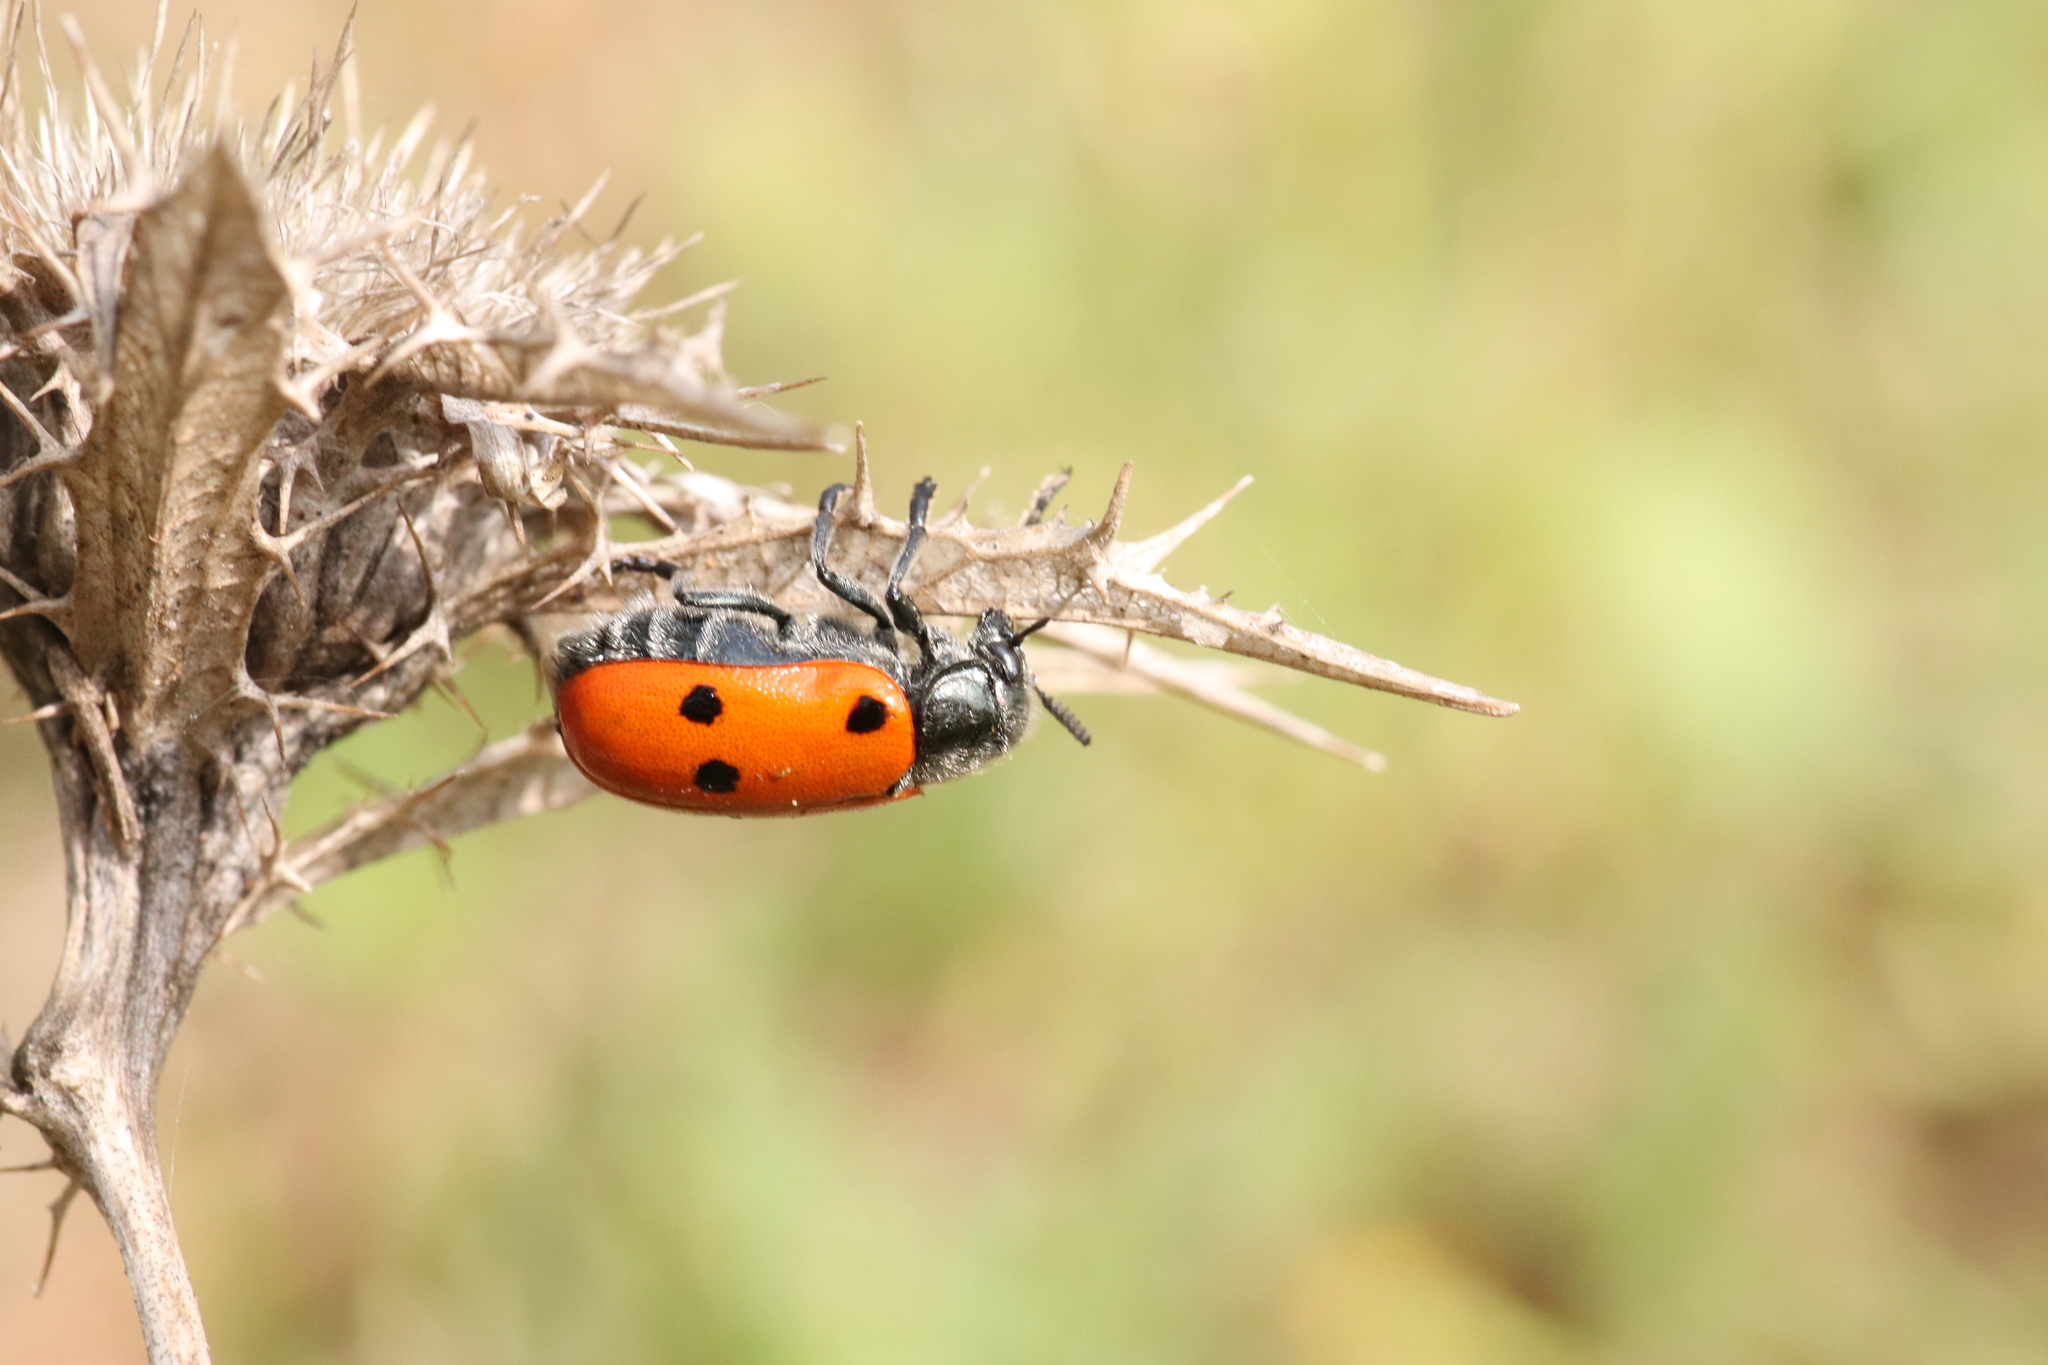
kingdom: Animalia
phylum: Arthropoda
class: Insecta
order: Coleoptera
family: Chrysomelidae
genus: Lachnaia
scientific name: Lachnaia paradoxa
